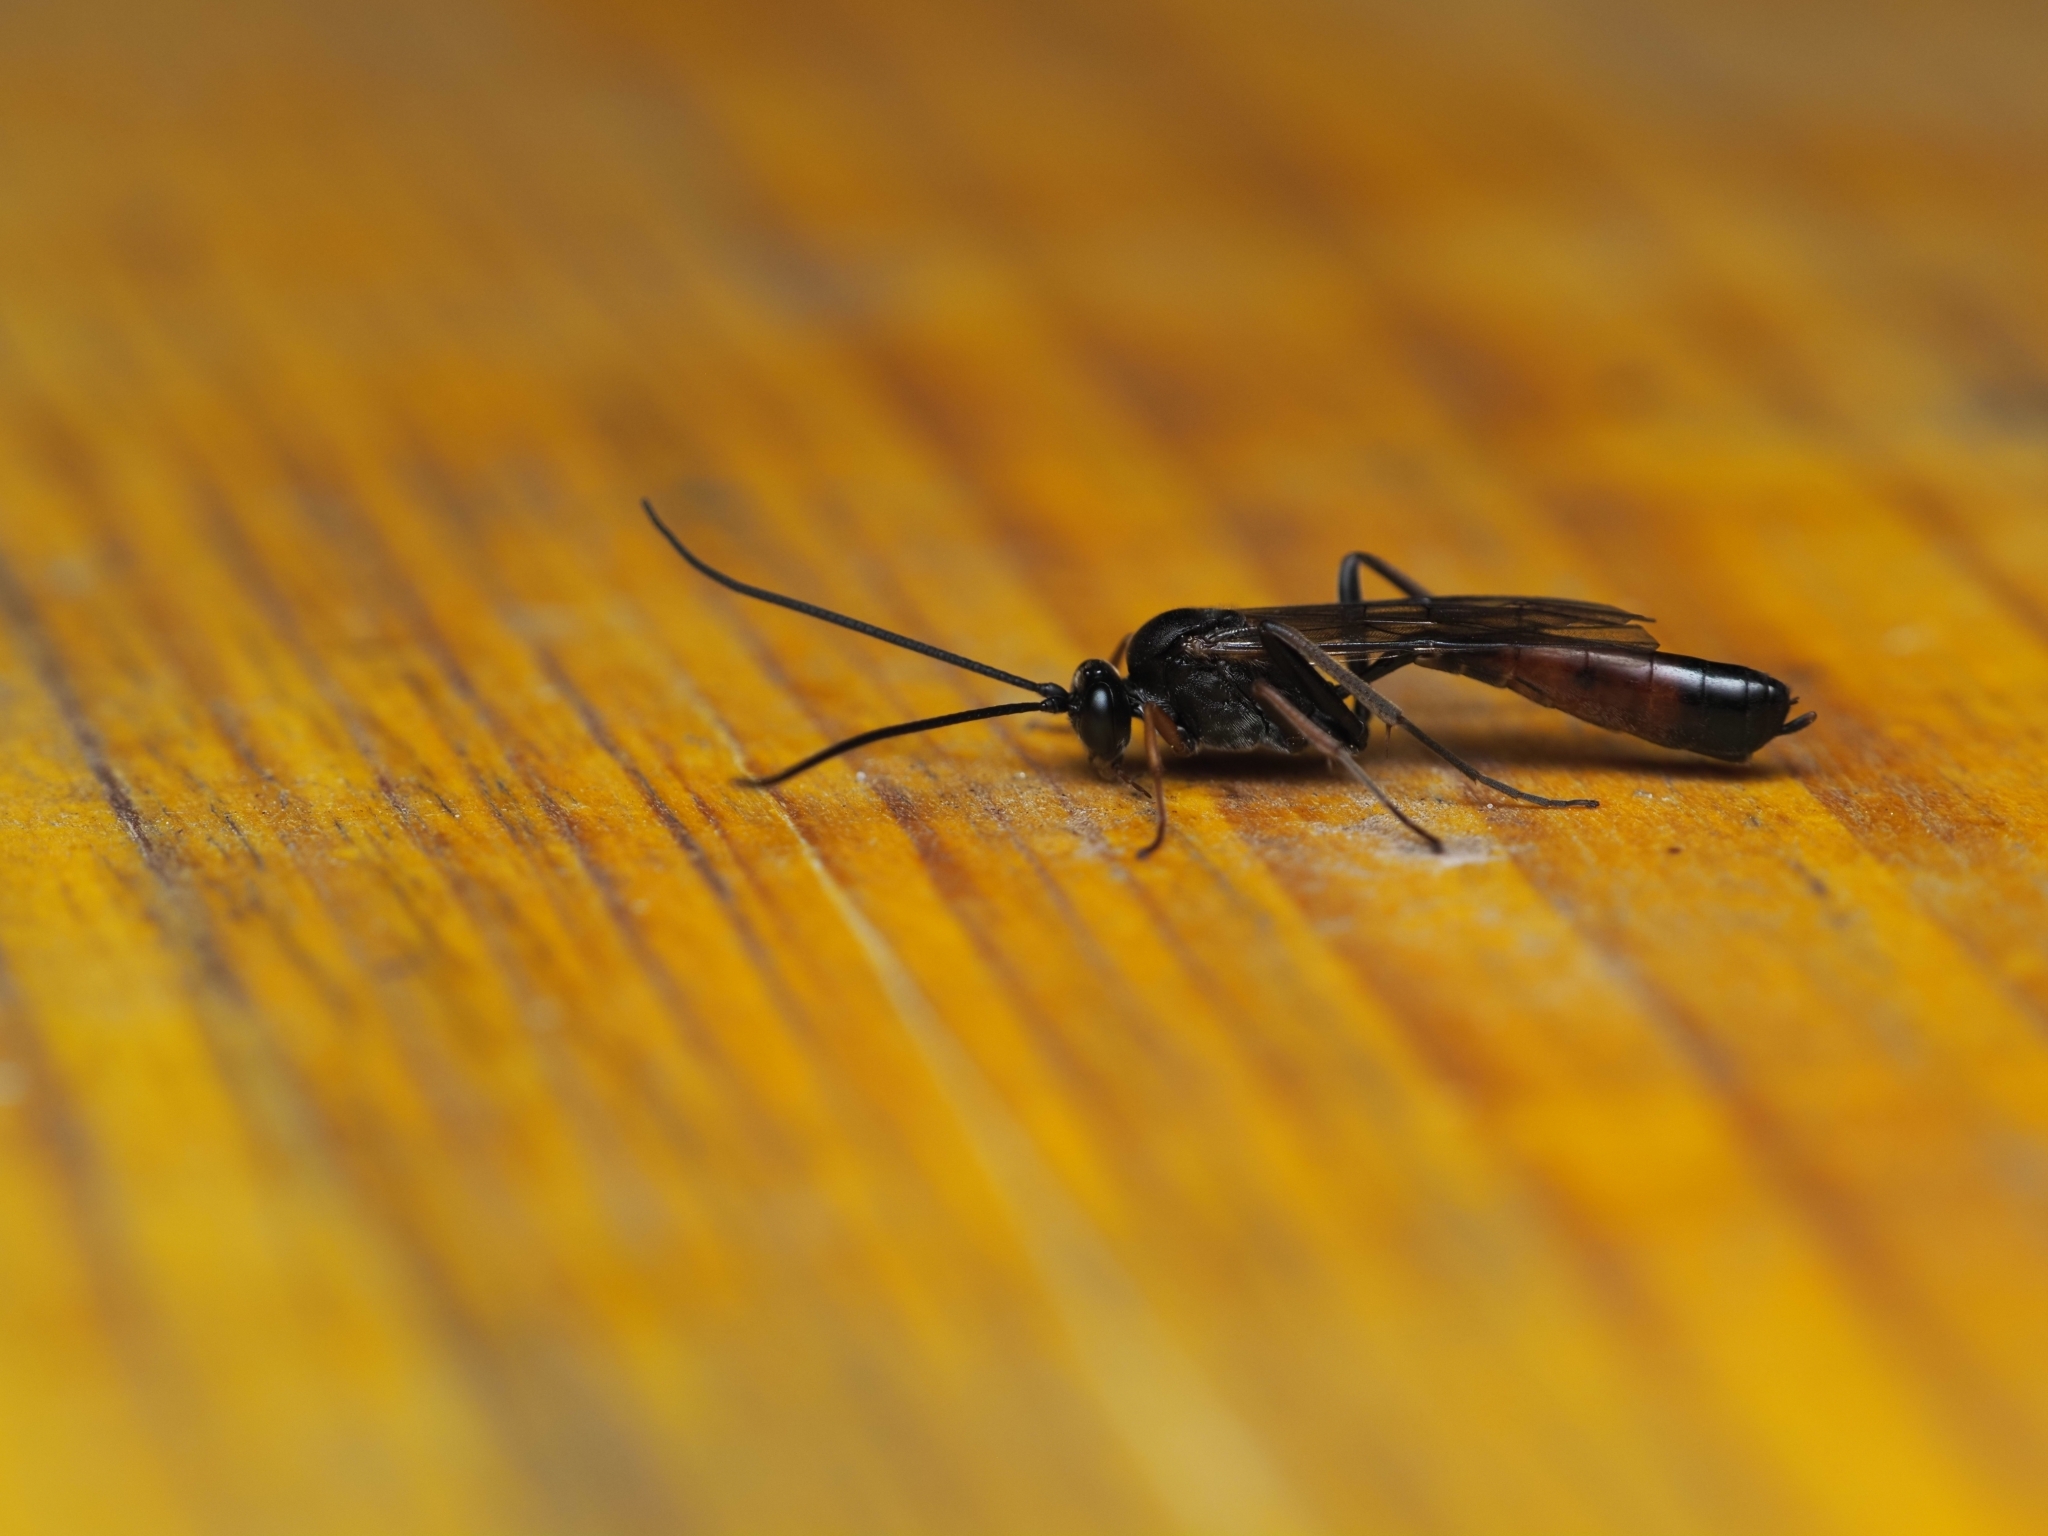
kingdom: Animalia
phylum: Arthropoda
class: Insecta
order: Hymenoptera
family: Ichneumonidae
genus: Dusona
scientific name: Dusona bicoloripes
